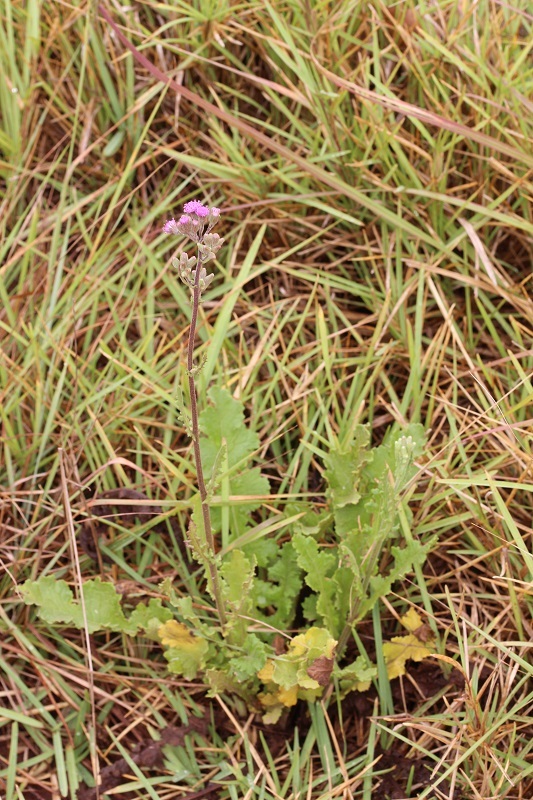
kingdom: Plantae
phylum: Tracheophyta
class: Magnoliopsida
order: Asterales
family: Asteraceae
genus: Senecio
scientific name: Senecio purpureus
